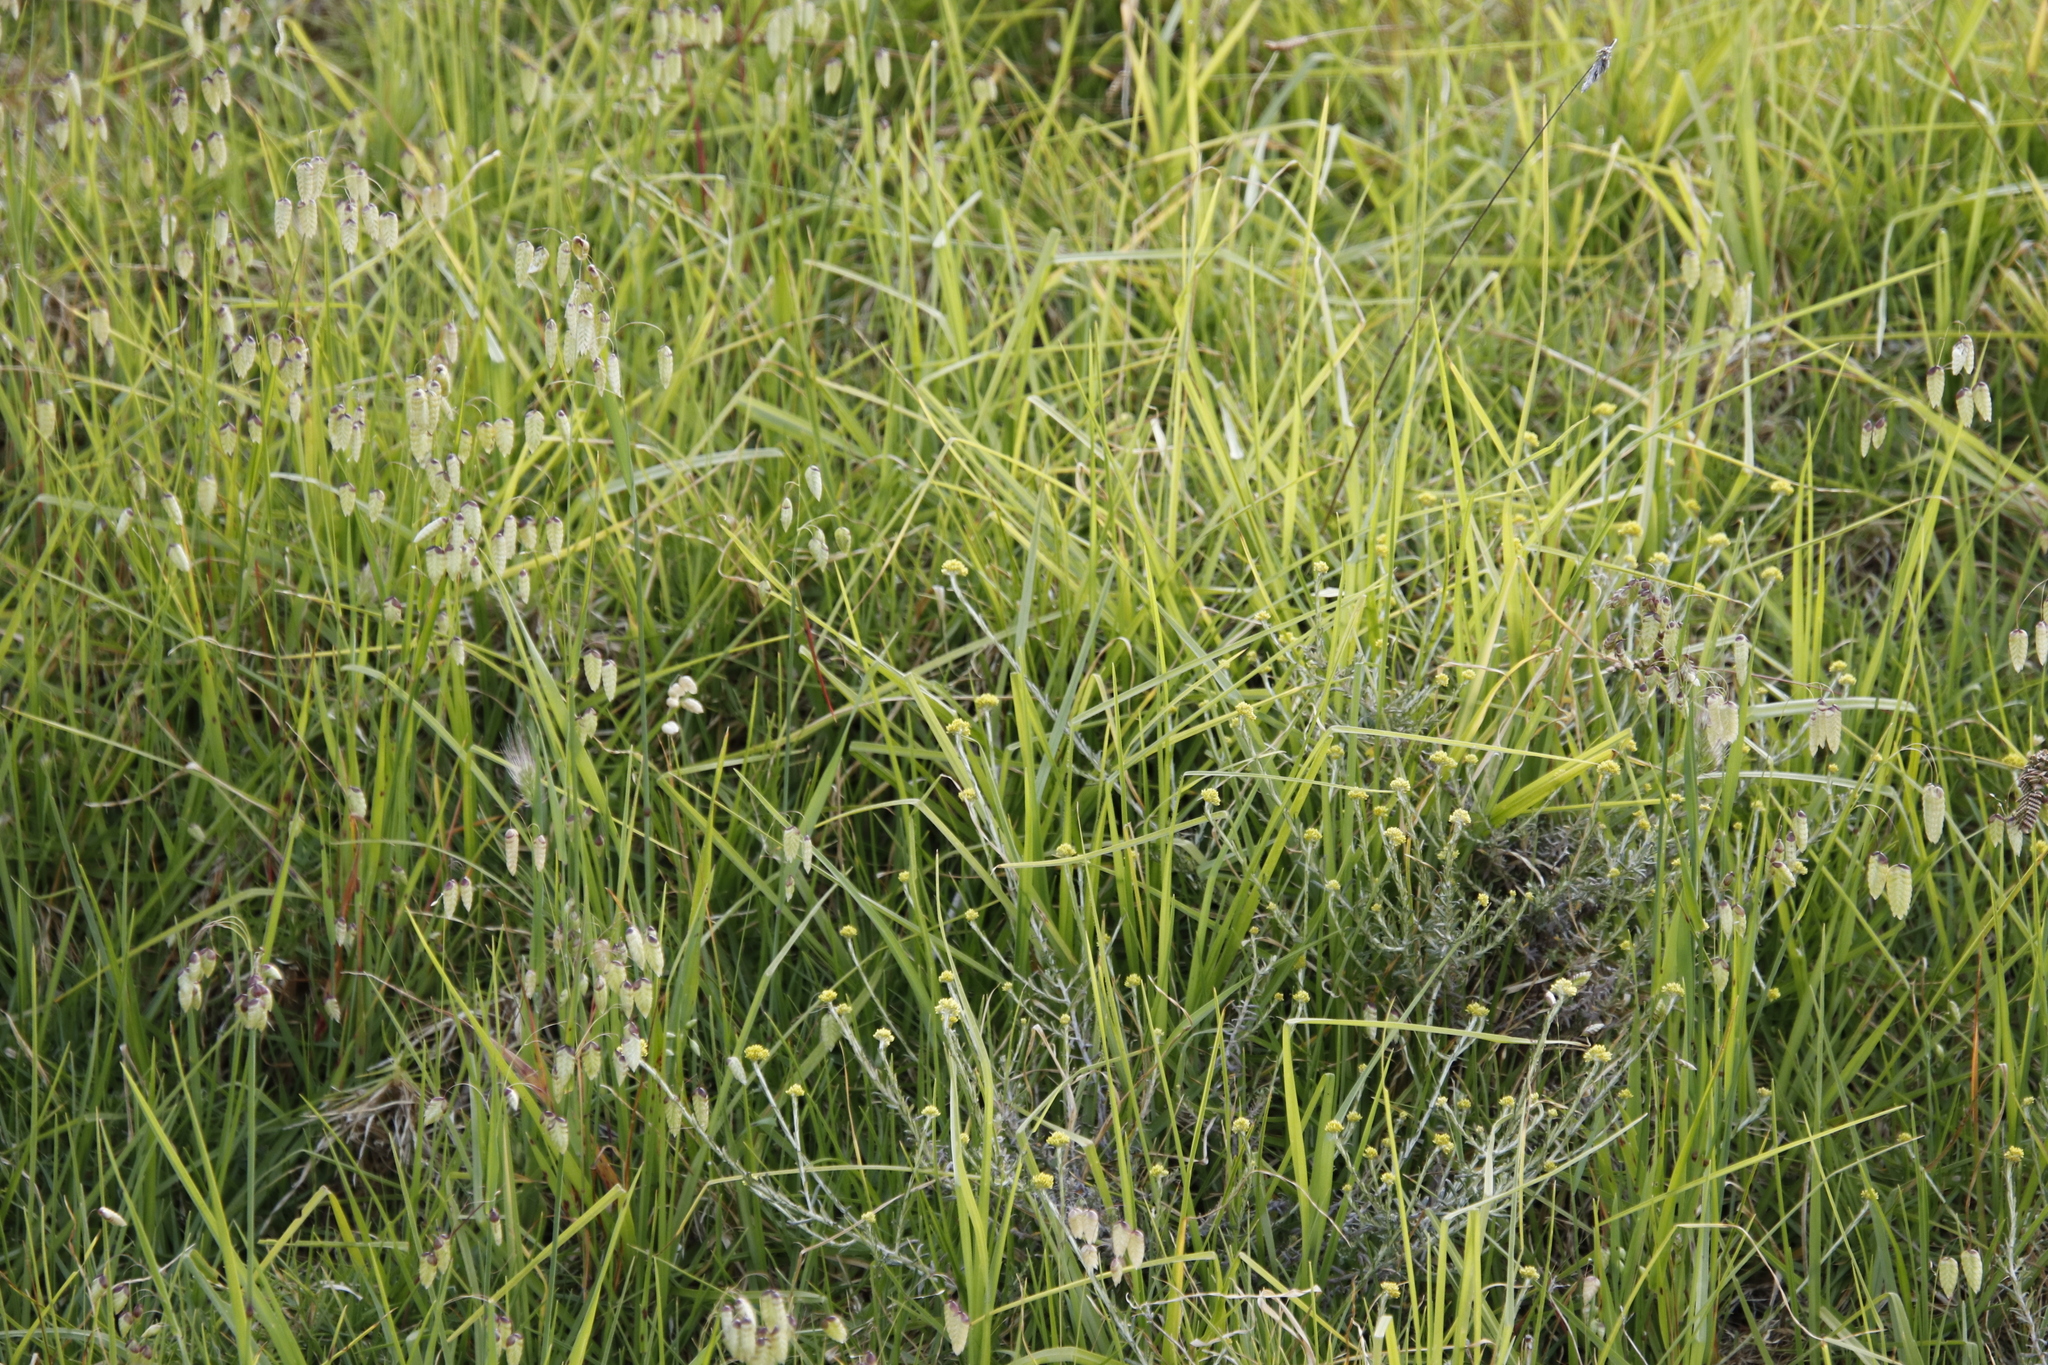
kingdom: Plantae
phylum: Tracheophyta
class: Liliopsida
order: Poales
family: Poaceae
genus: Cenchrus
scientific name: Cenchrus clandestinus
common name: Kikuyugrass
